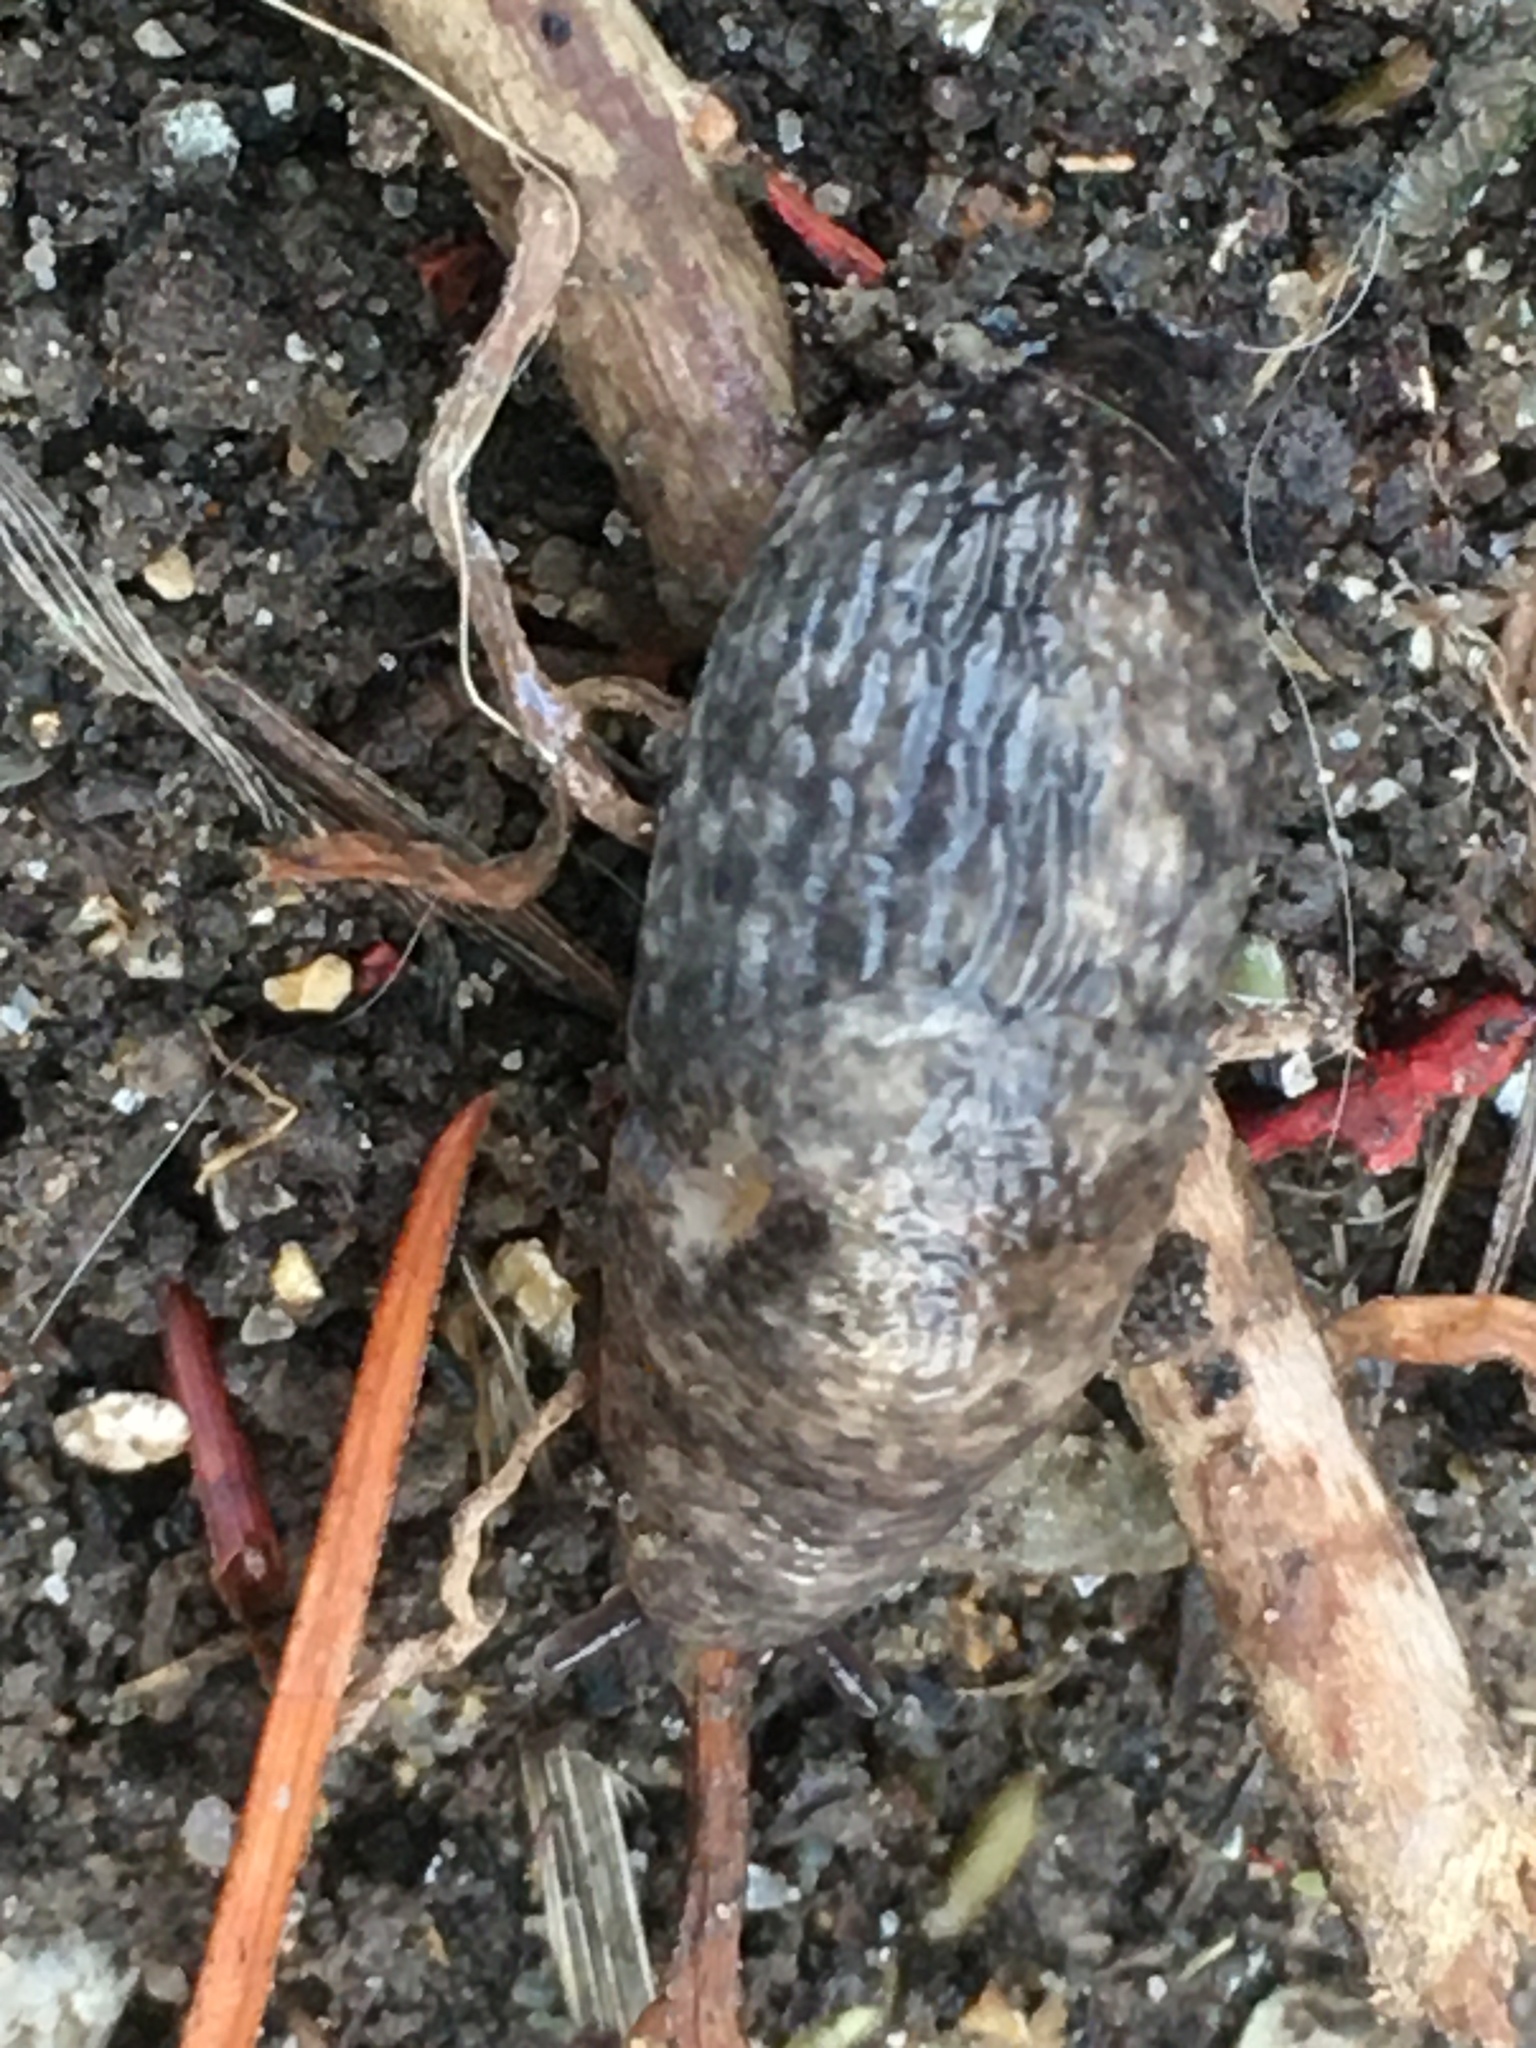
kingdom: Animalia
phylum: Mollusca
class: Gastropoda
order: Stylommatophora
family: Agriolimacidae
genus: Deroceras
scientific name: Deroceras reticulatum
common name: Gray field slug
